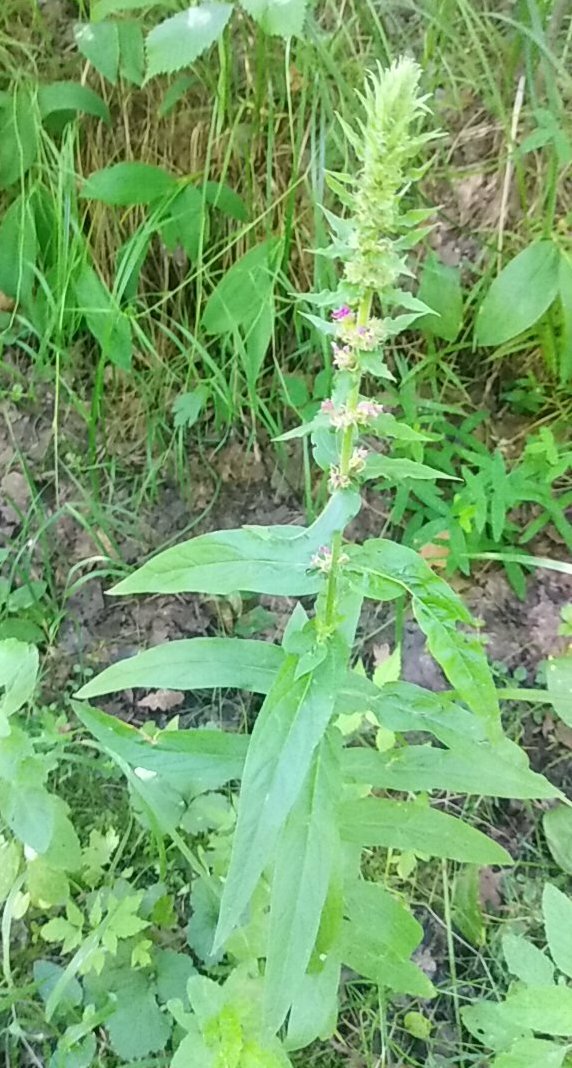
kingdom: Plantae
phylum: Tracheophyta
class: Magnoliopsida
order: Myrtales
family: Lythraceae
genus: Lythrum
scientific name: Lythrum salicaria
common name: Purple loosestrife
